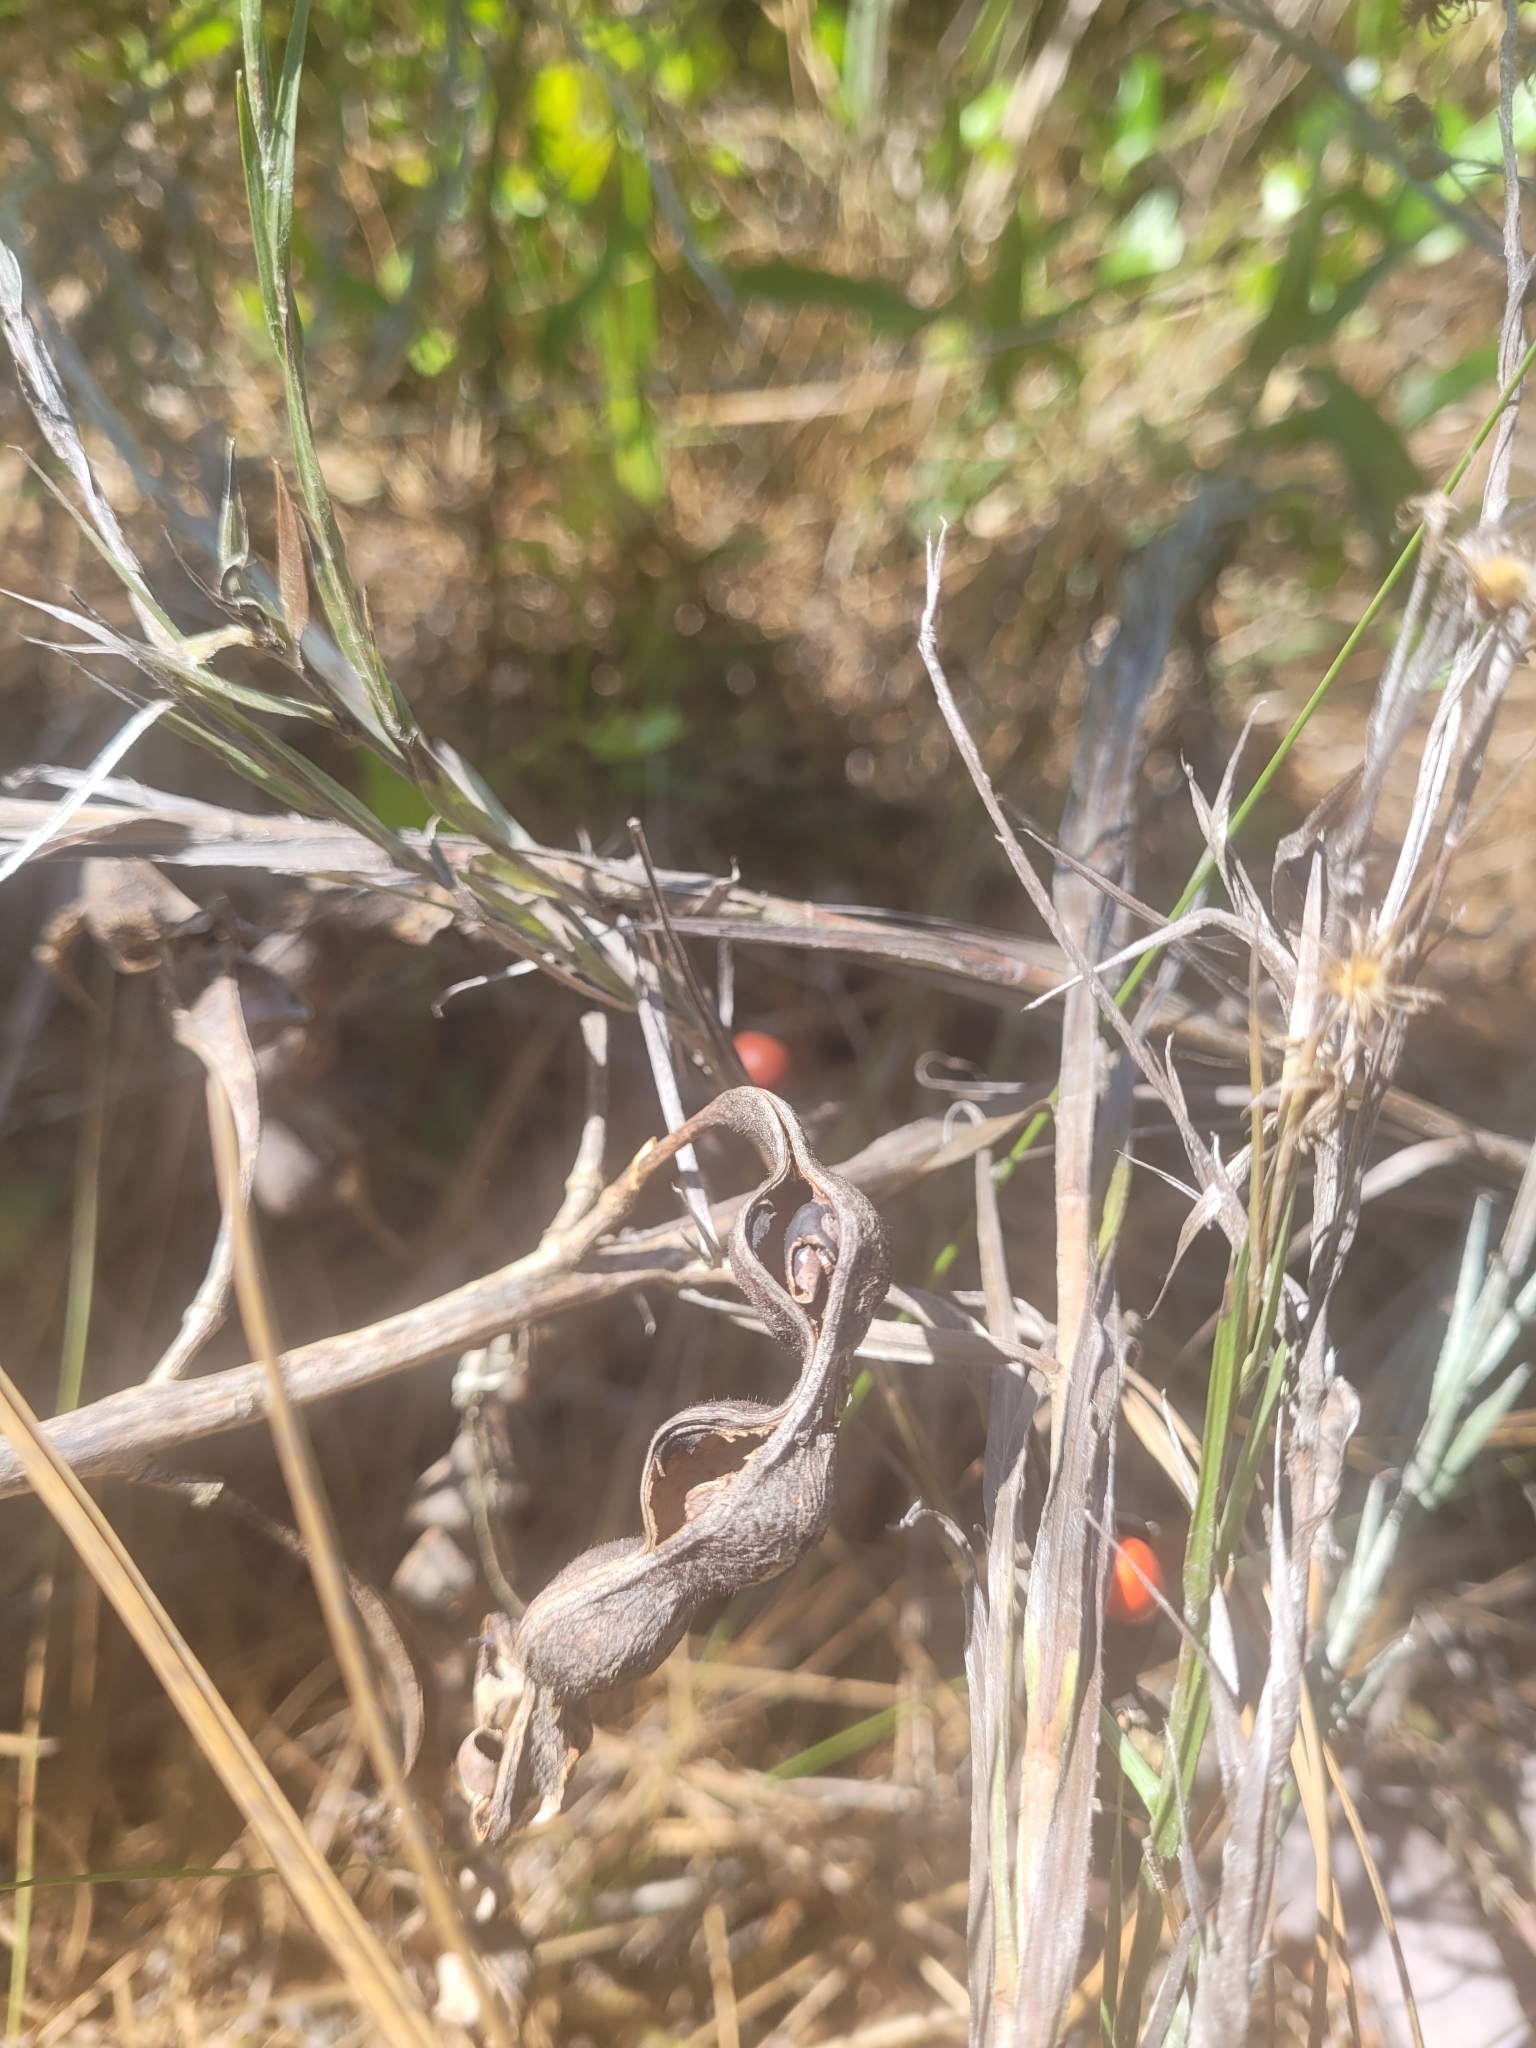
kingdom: Plantae
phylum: Tracheophyta
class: Magnoliopsida
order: Fabales
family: Fabaceae
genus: Erythrina
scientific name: Erythrina herbacea
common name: Coral-bean
